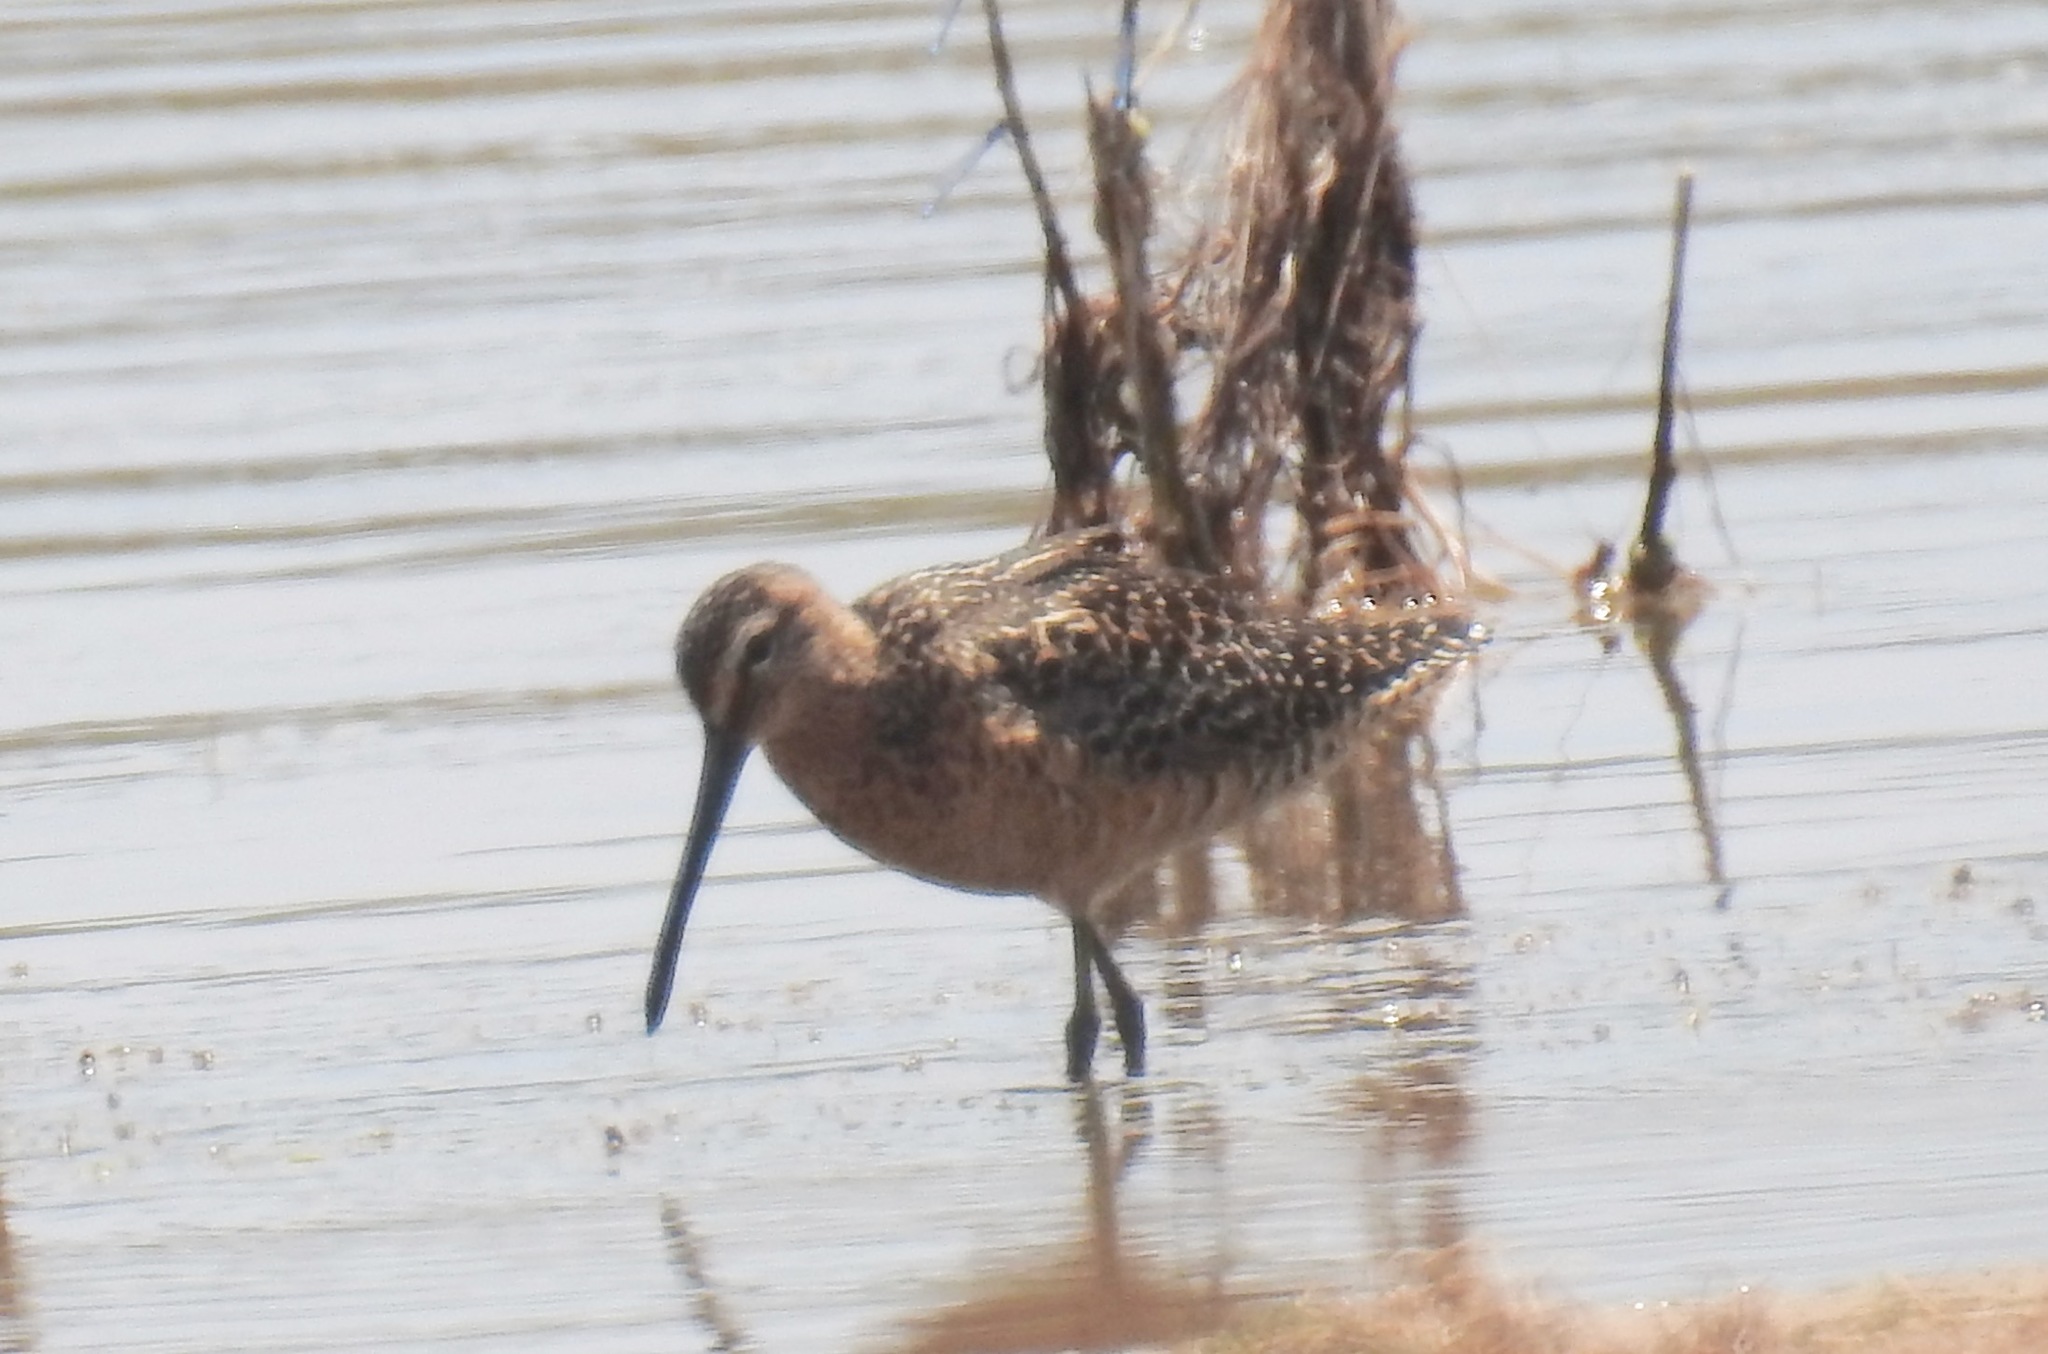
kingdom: Animalia
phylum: Chordata
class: Aves
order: Charadriiformes
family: Scolopacidae
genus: Limnodromus
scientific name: Limnodromus scolopaceus
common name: Long-billed dowitcher
